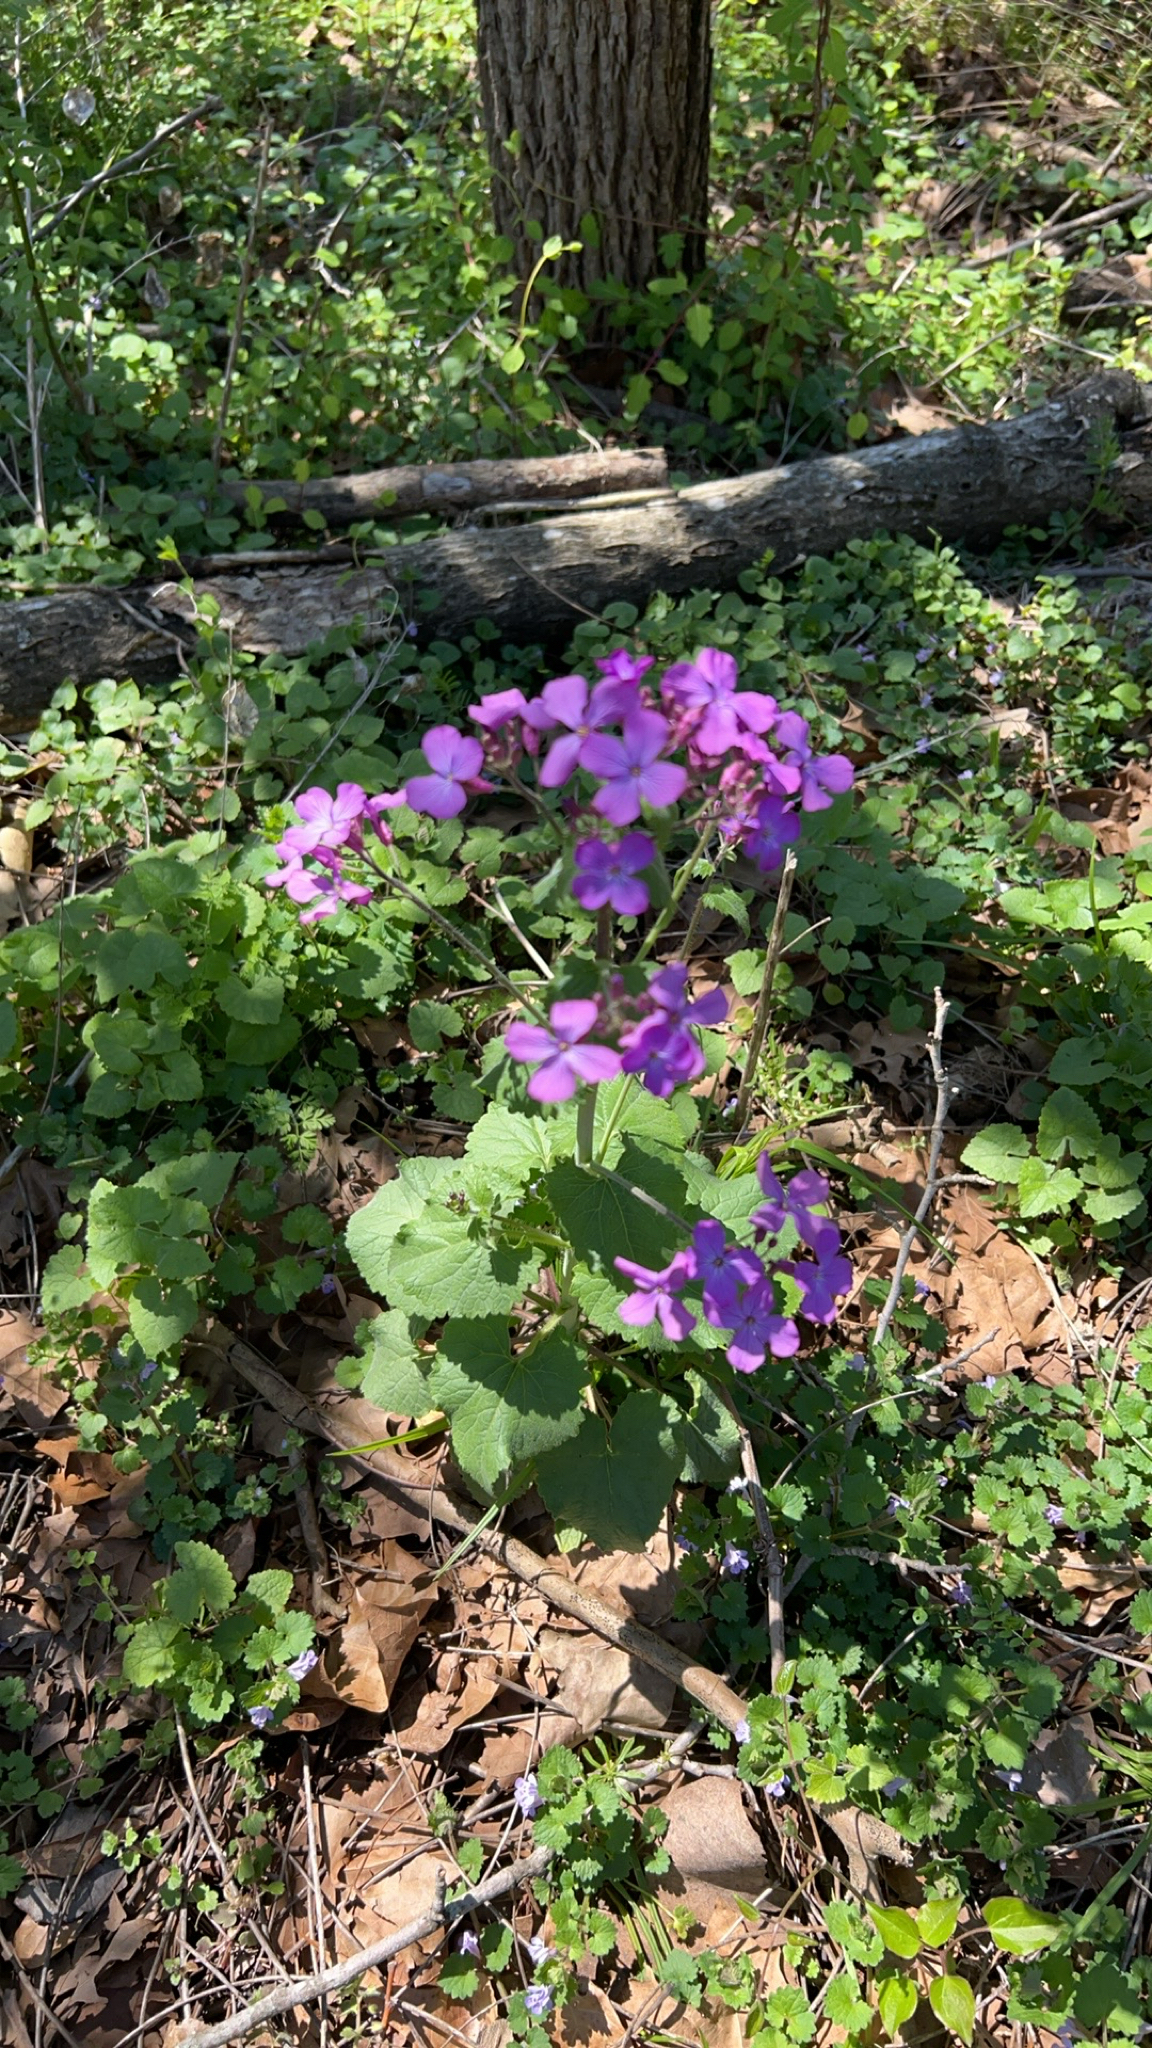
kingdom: Plantae
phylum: Tracheophyta
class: Magnoliopsida
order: Brassicales
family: Brassicaceae
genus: Lunaria
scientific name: Lunaria annua
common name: Honesty
